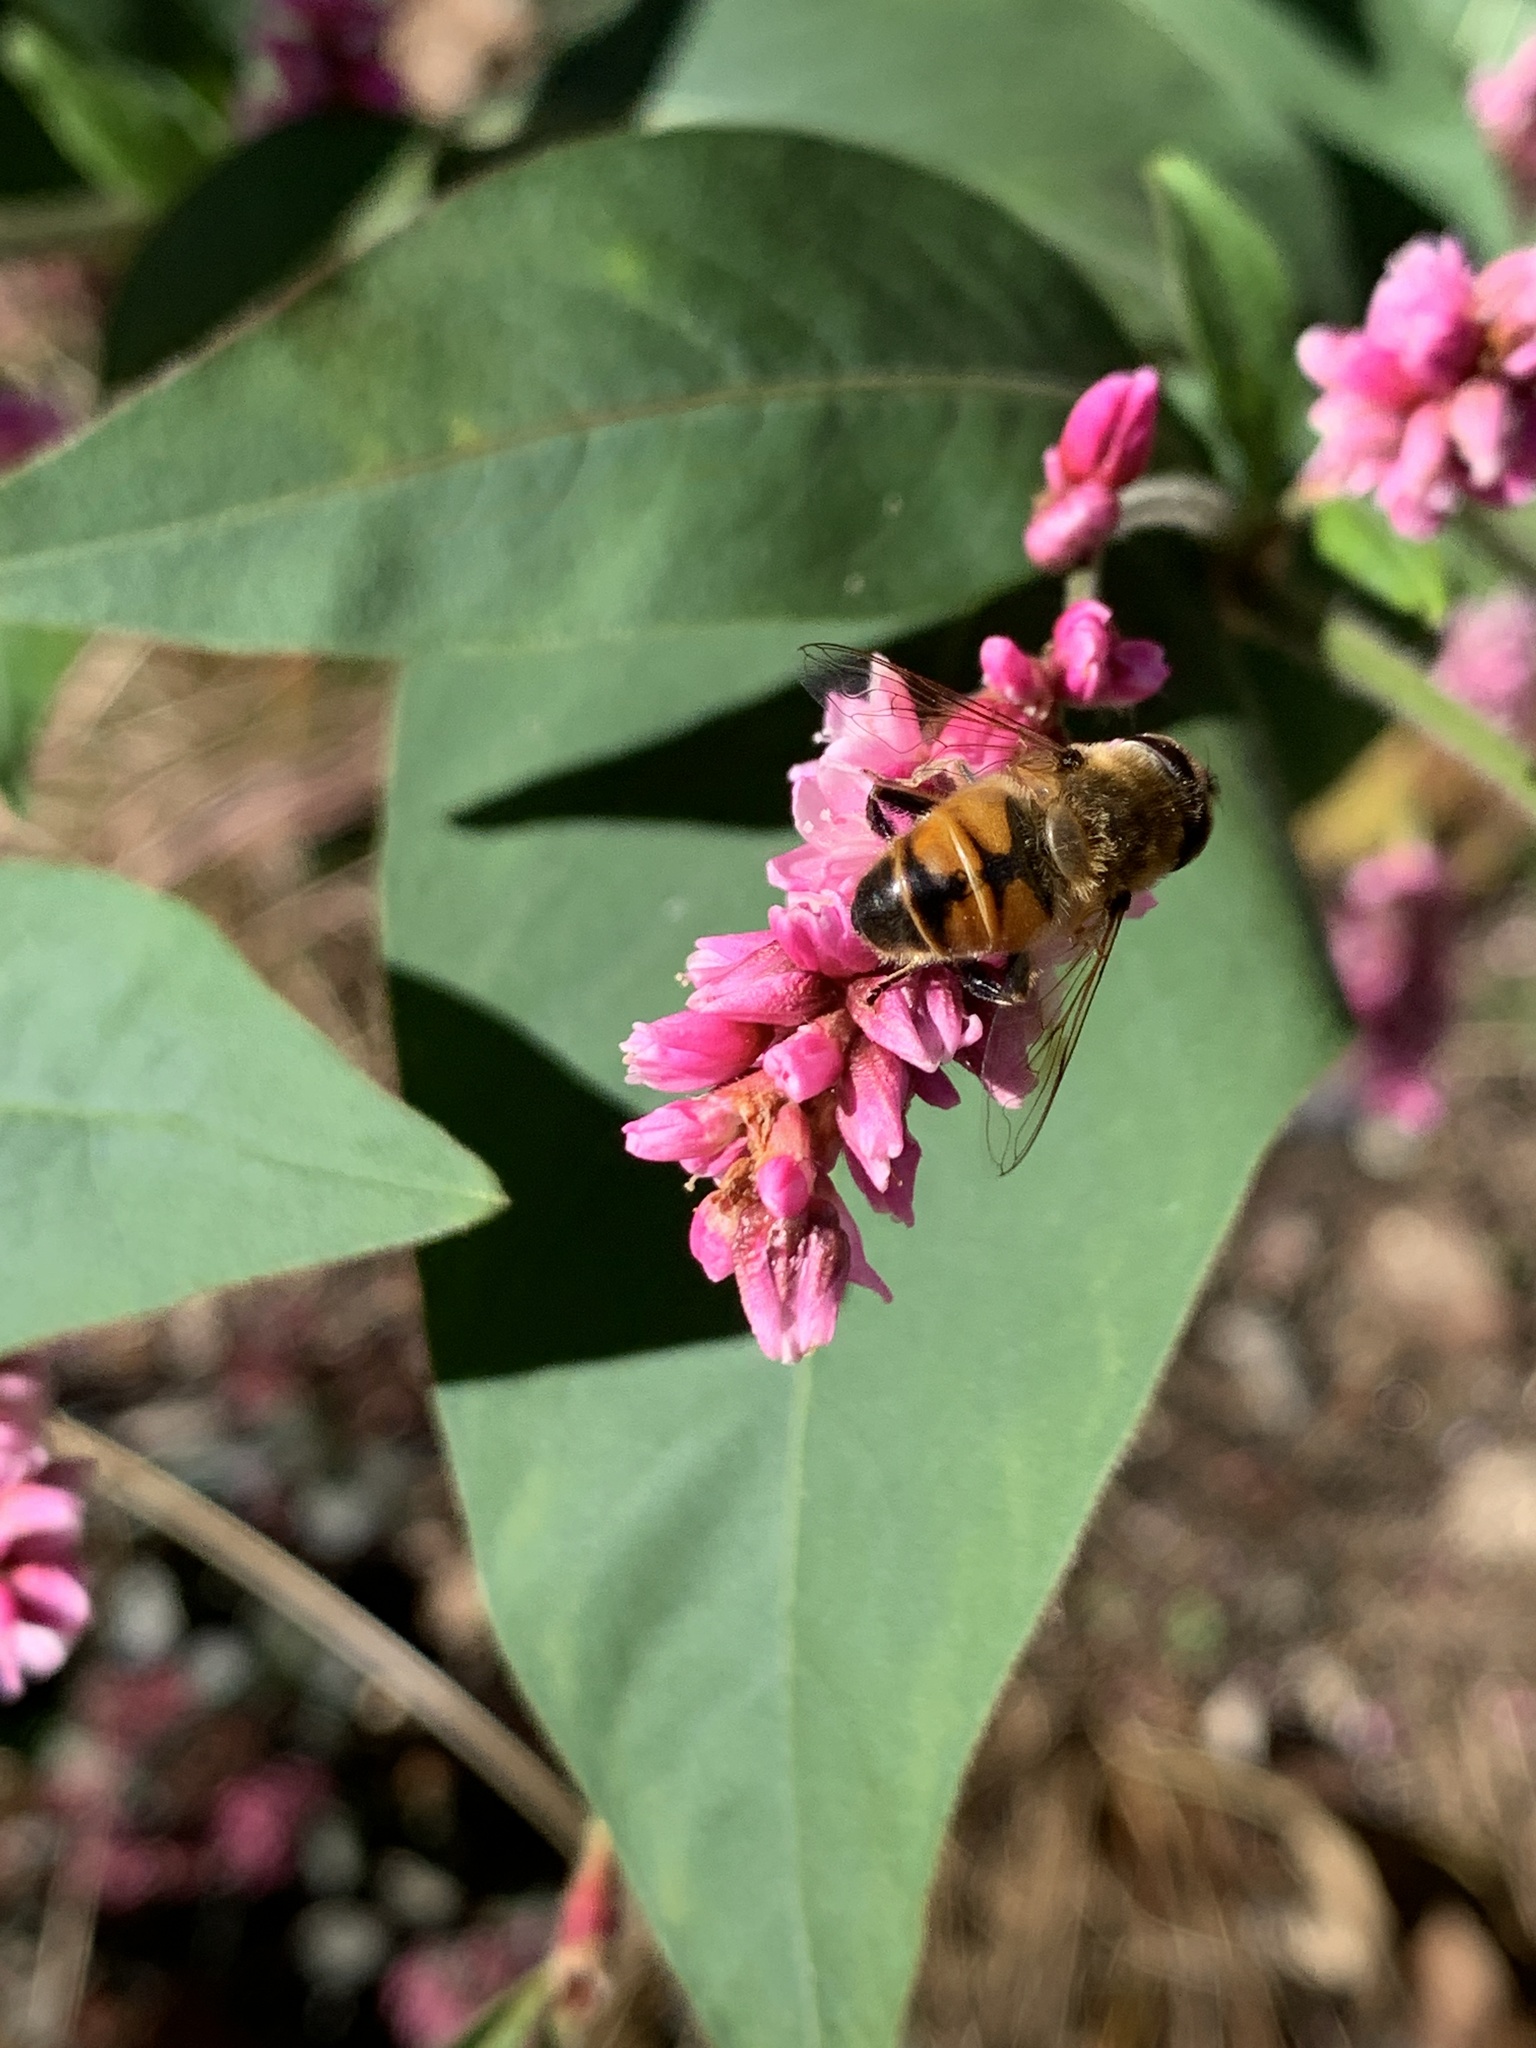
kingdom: Animalia
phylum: Arthropoda
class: Insecta
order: Diptera
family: Syrphidae
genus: Eristalis
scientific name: Eristalis tenax
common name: Drone fly
